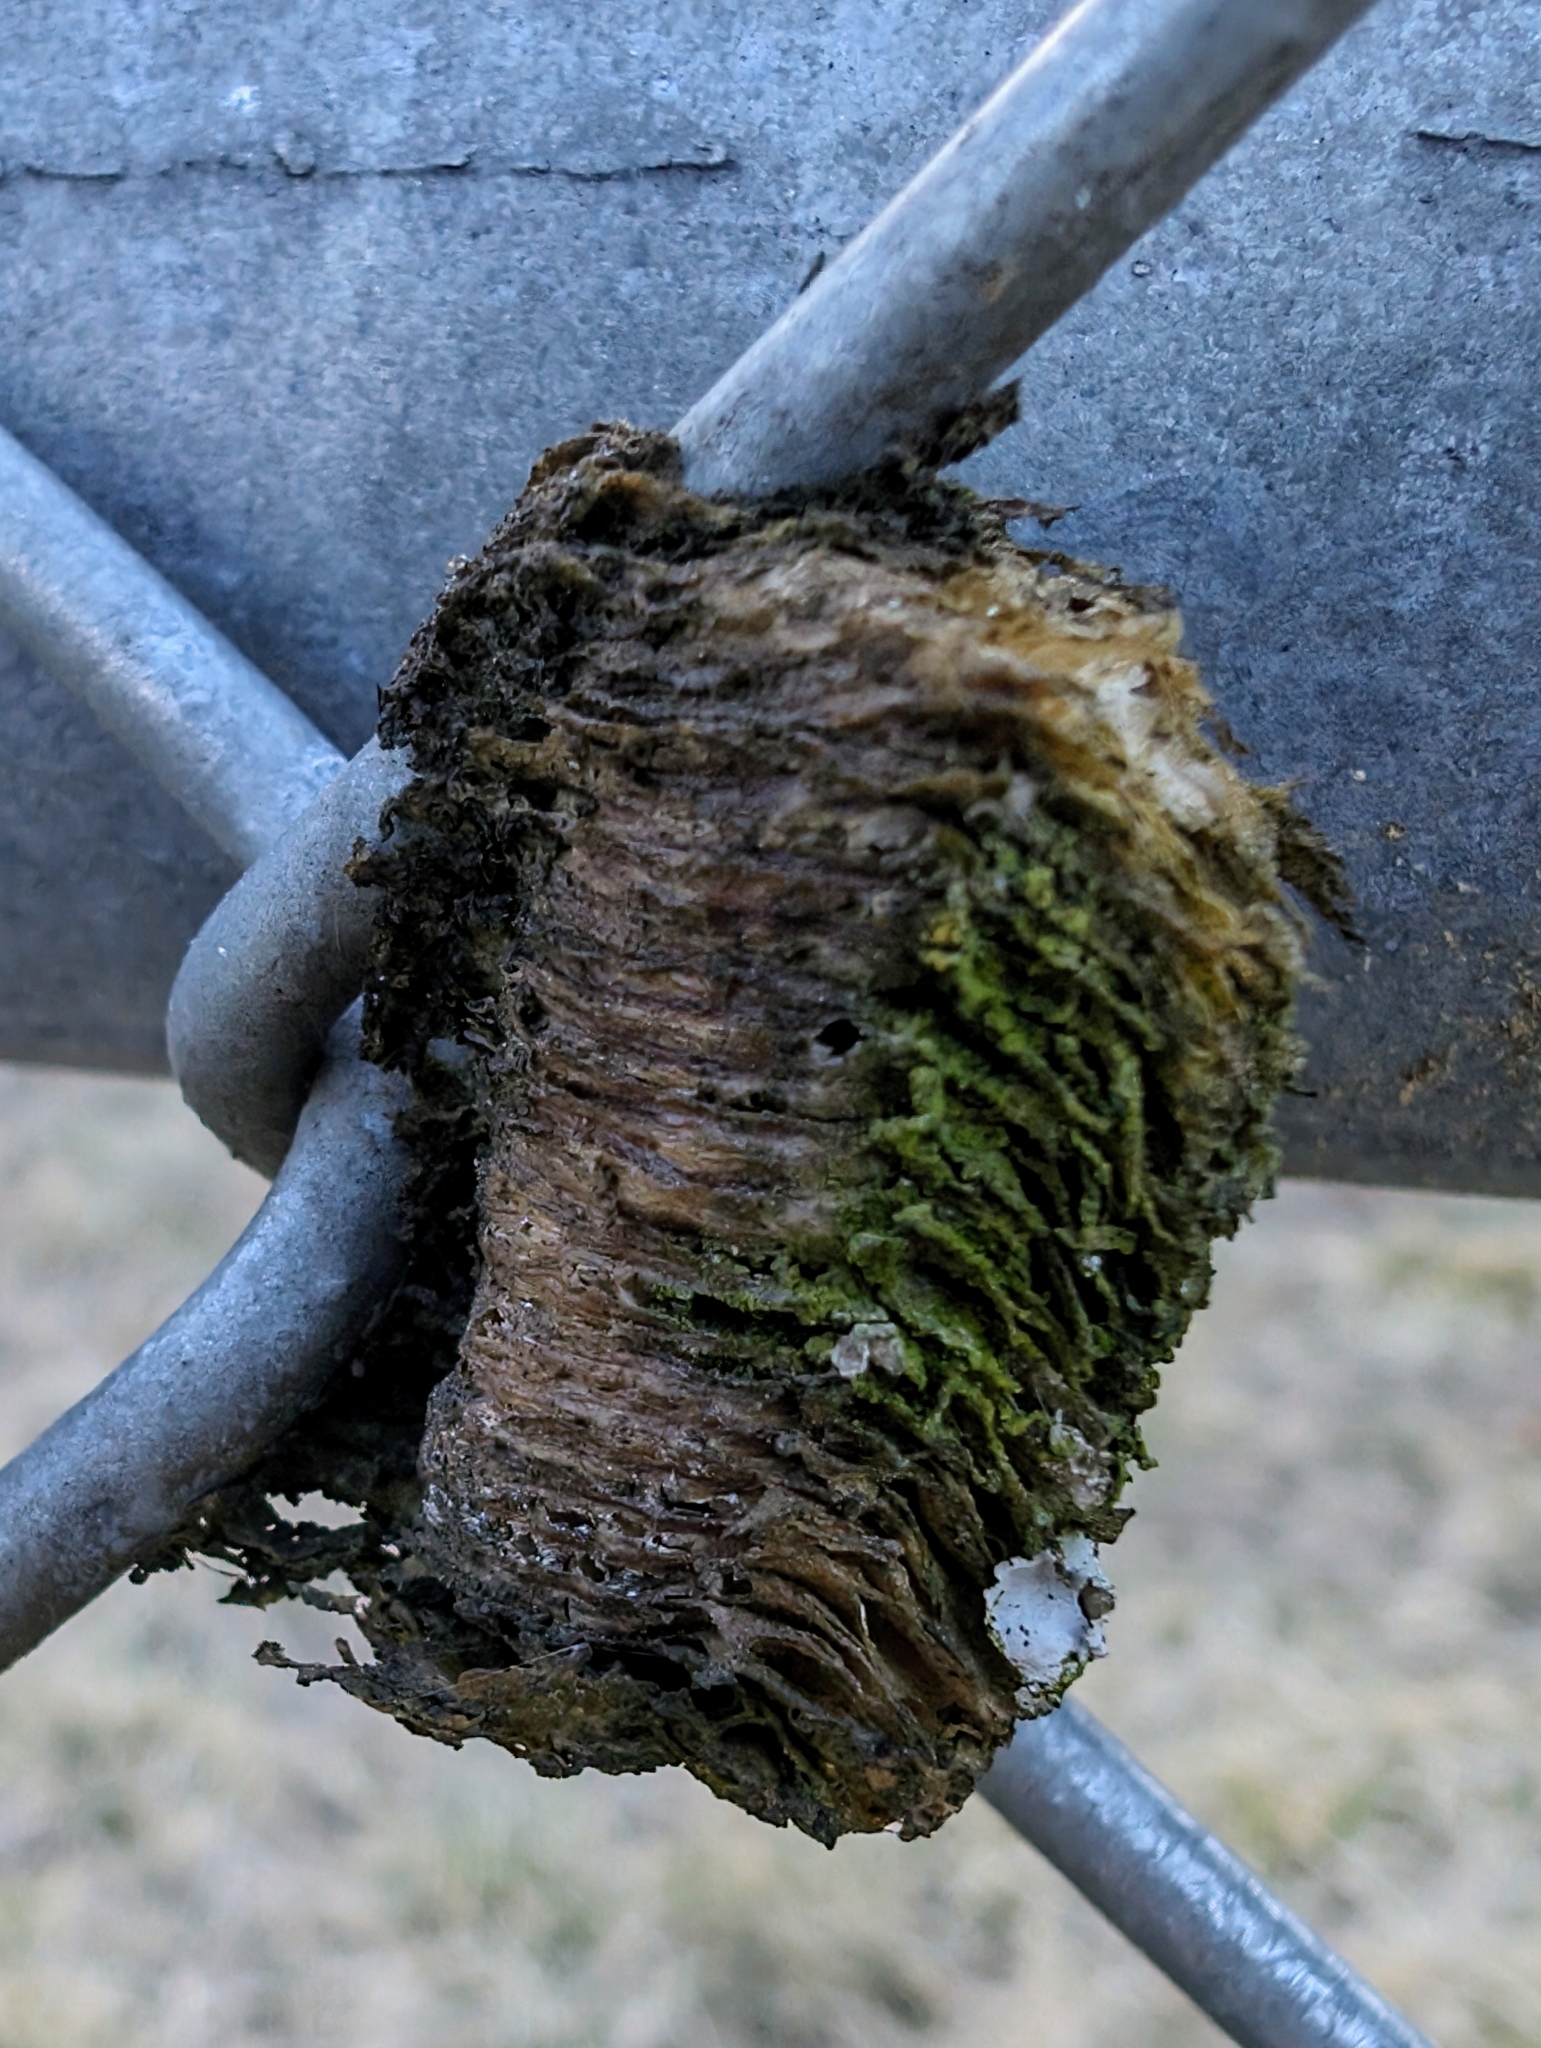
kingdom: Animalia
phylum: Arthropoda
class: Insecta
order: Mantodea
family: Mantidae
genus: Tenodera
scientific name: Tenodera sinensis
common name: Chinese mantis
